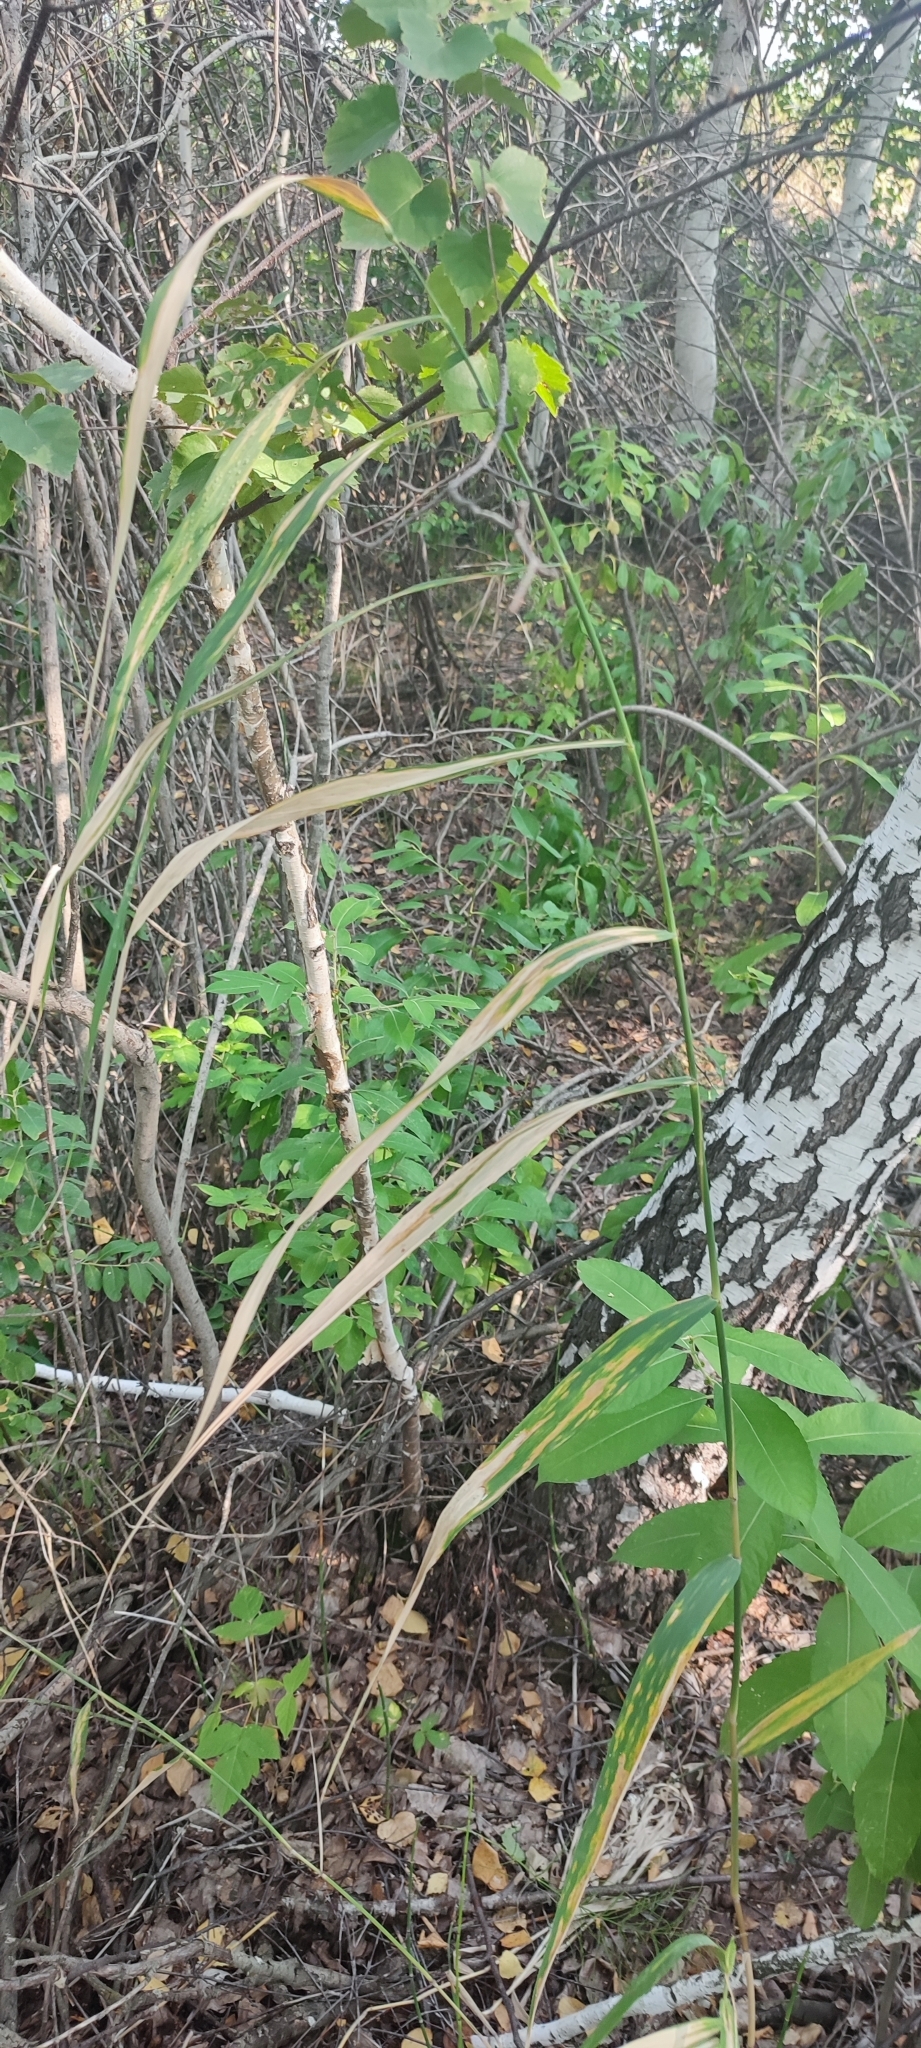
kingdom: Plantae
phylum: Tracheophyta
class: Liliopsida
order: Poales
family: Poaceae
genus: Phragmites
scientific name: Phragmites australis
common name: Common reed
